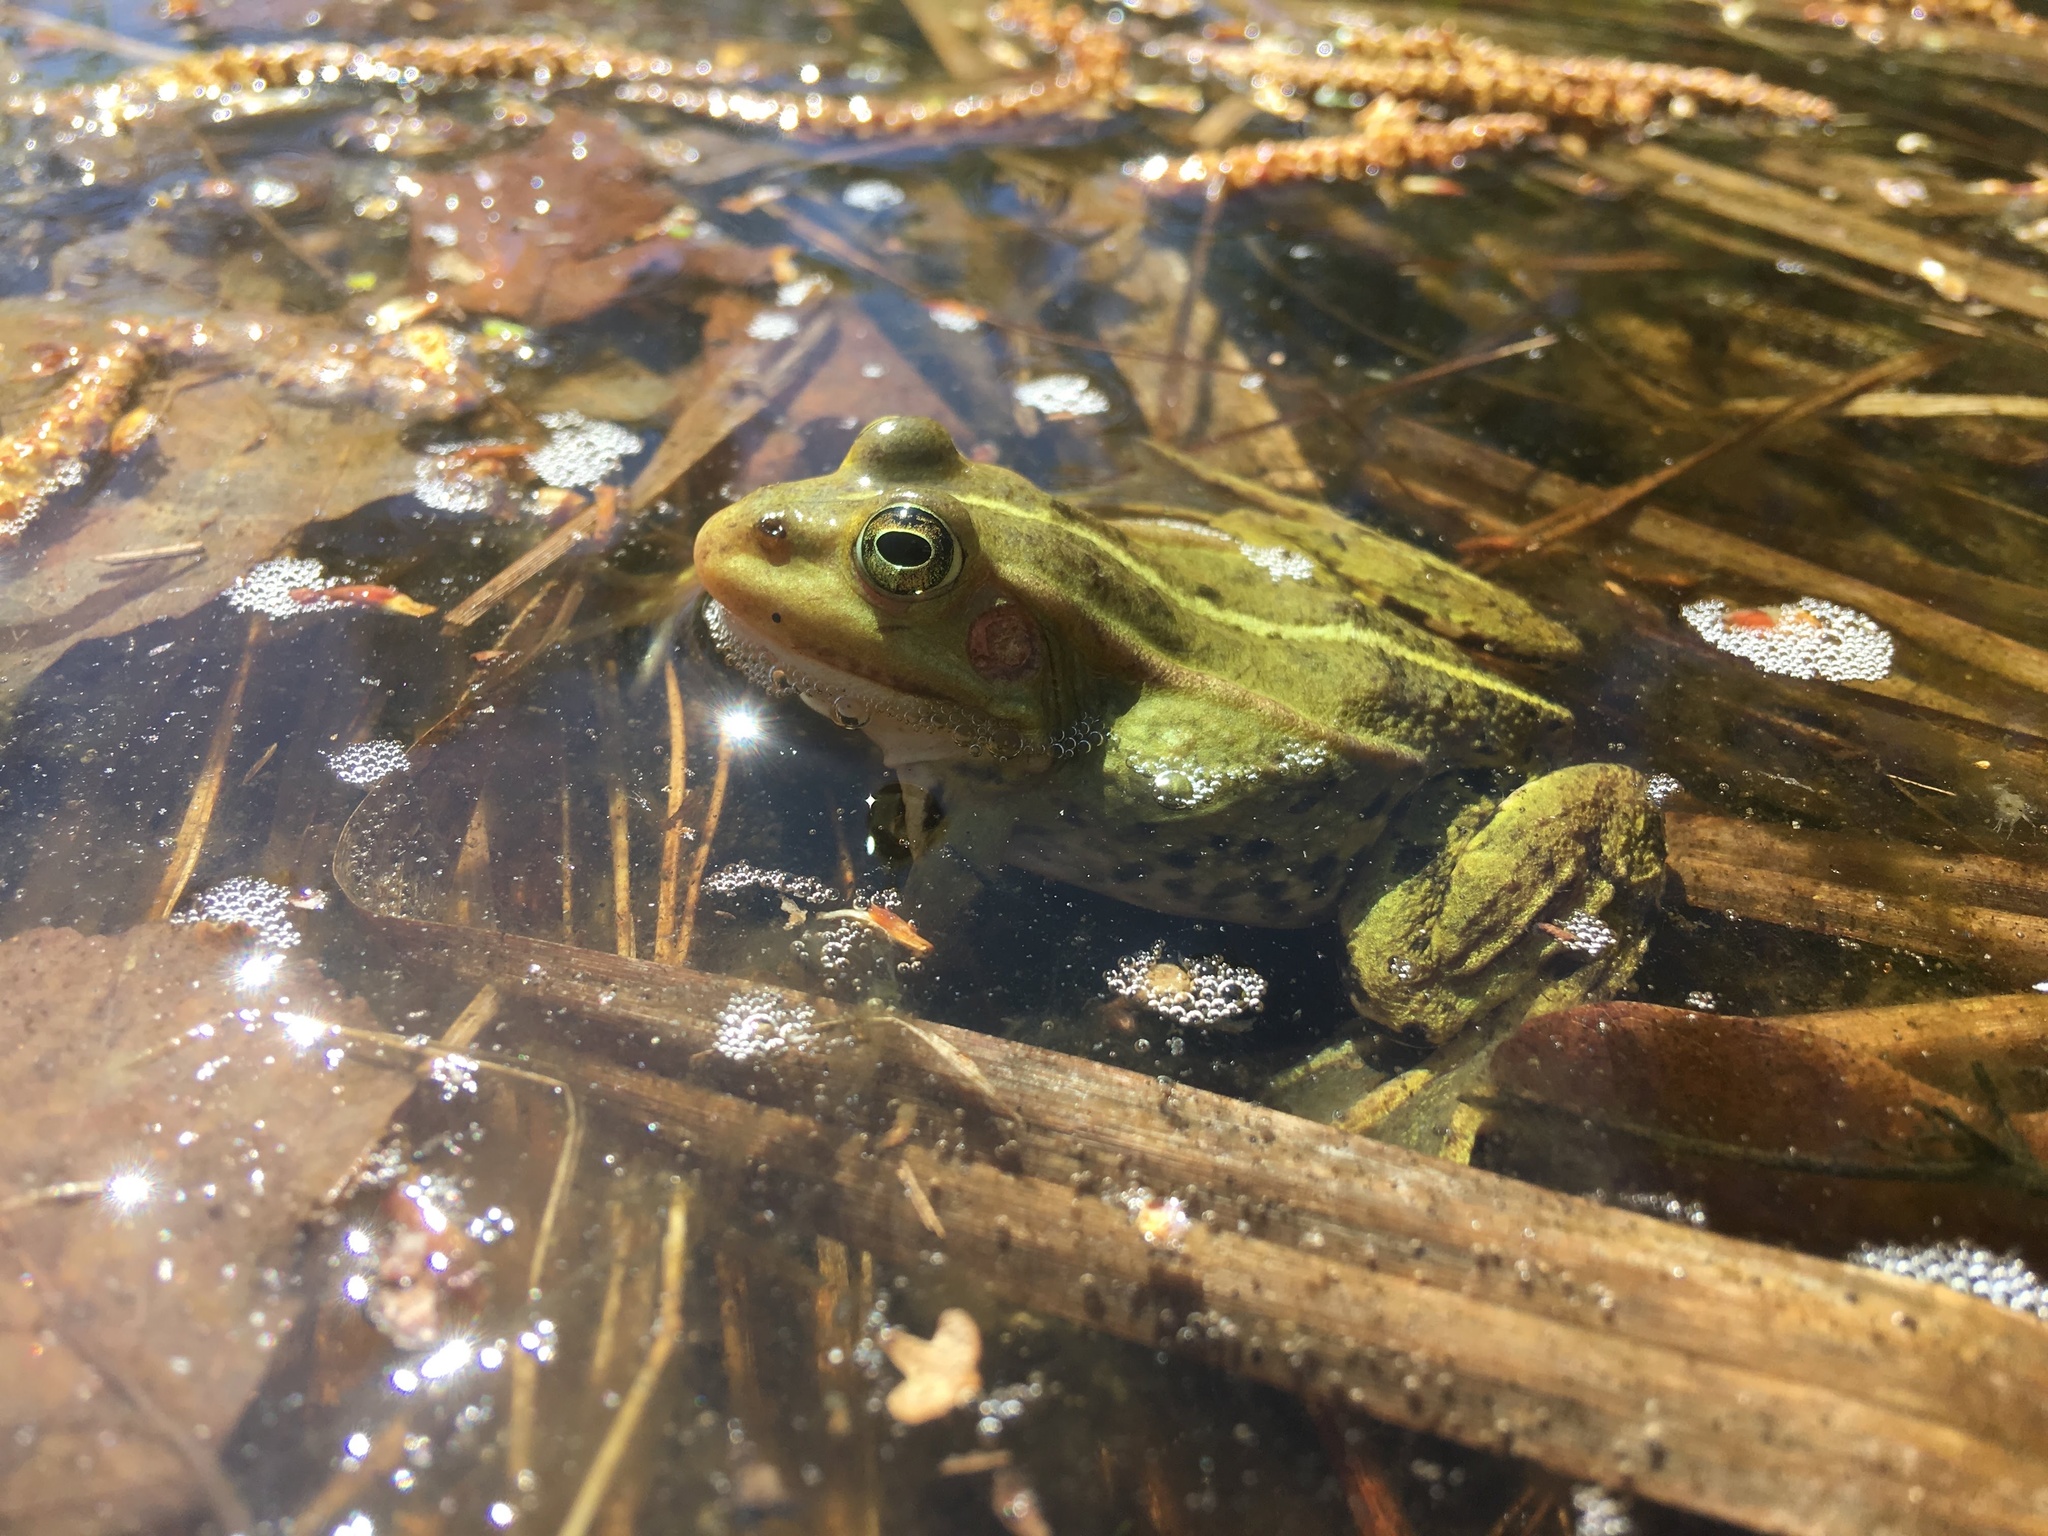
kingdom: Animalia
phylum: Chordata
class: Amphibia
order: Anura
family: Ranidae
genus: Pelophylax
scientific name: Pelophylax lessonae
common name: Pool frog
